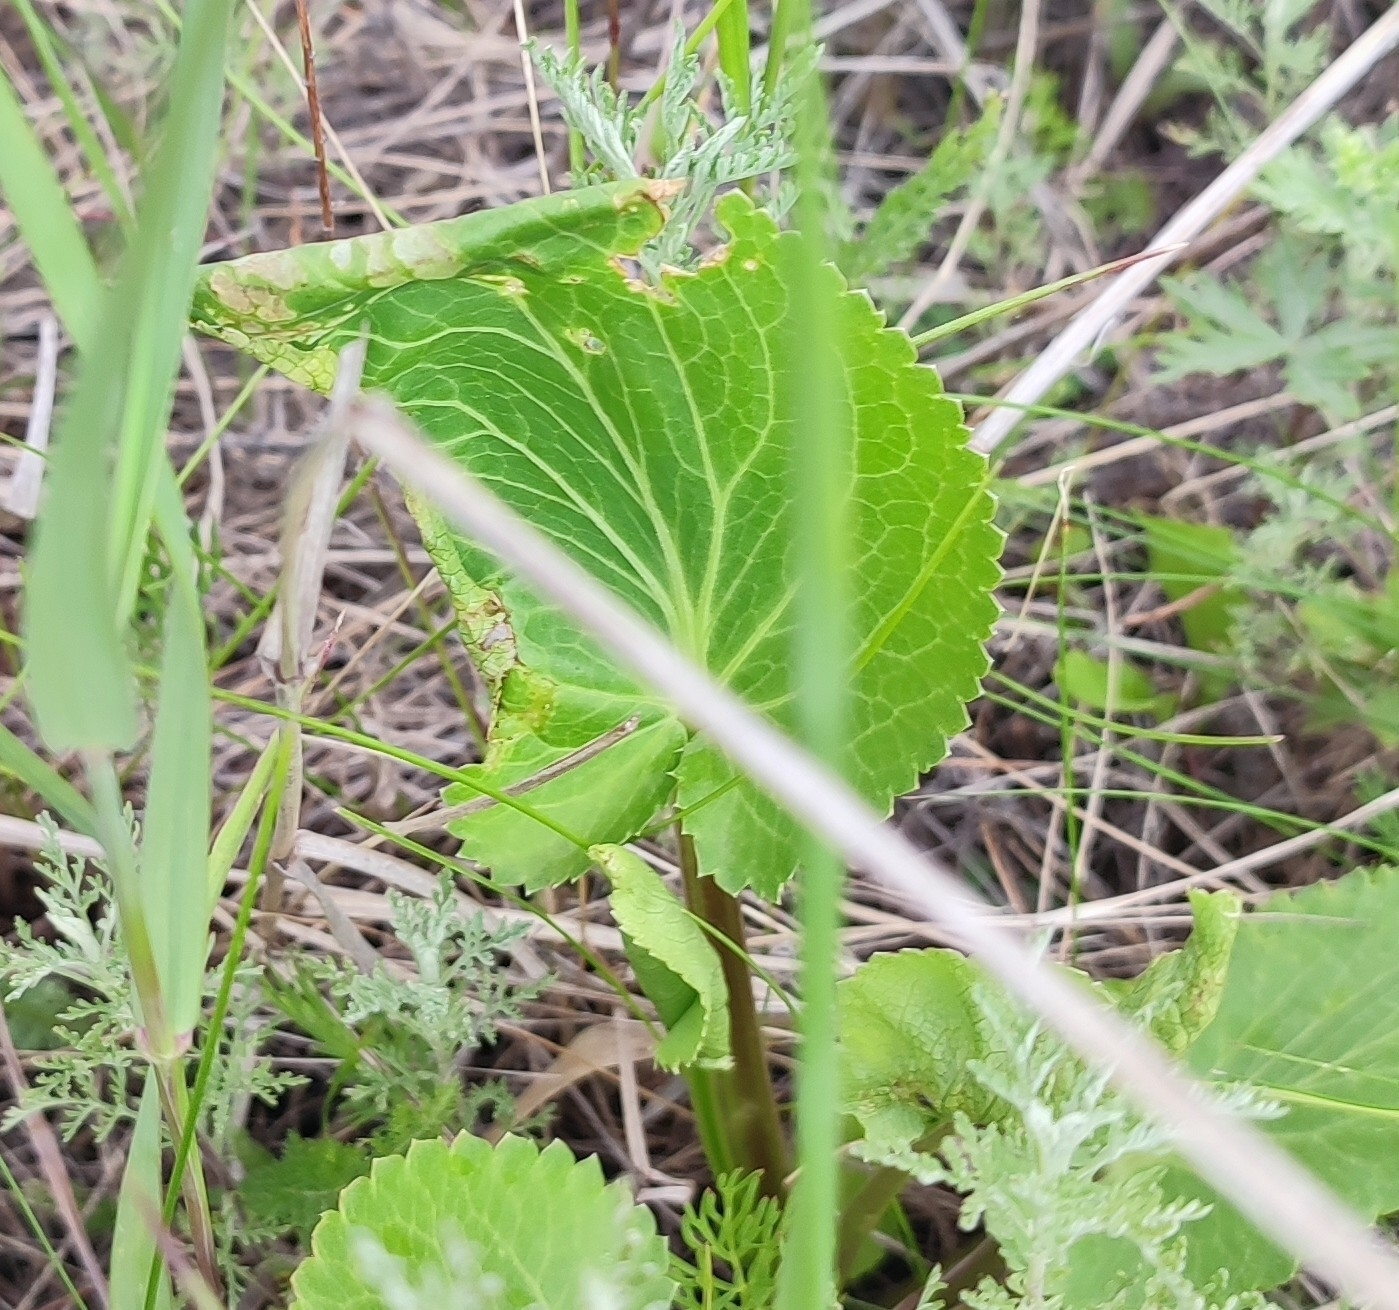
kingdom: Plantae
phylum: Tracheophyta
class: Magnoliopsida
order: Apiales
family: Apiaceae
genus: Eryngium
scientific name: Eryngium planum
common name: Blue eryngo
